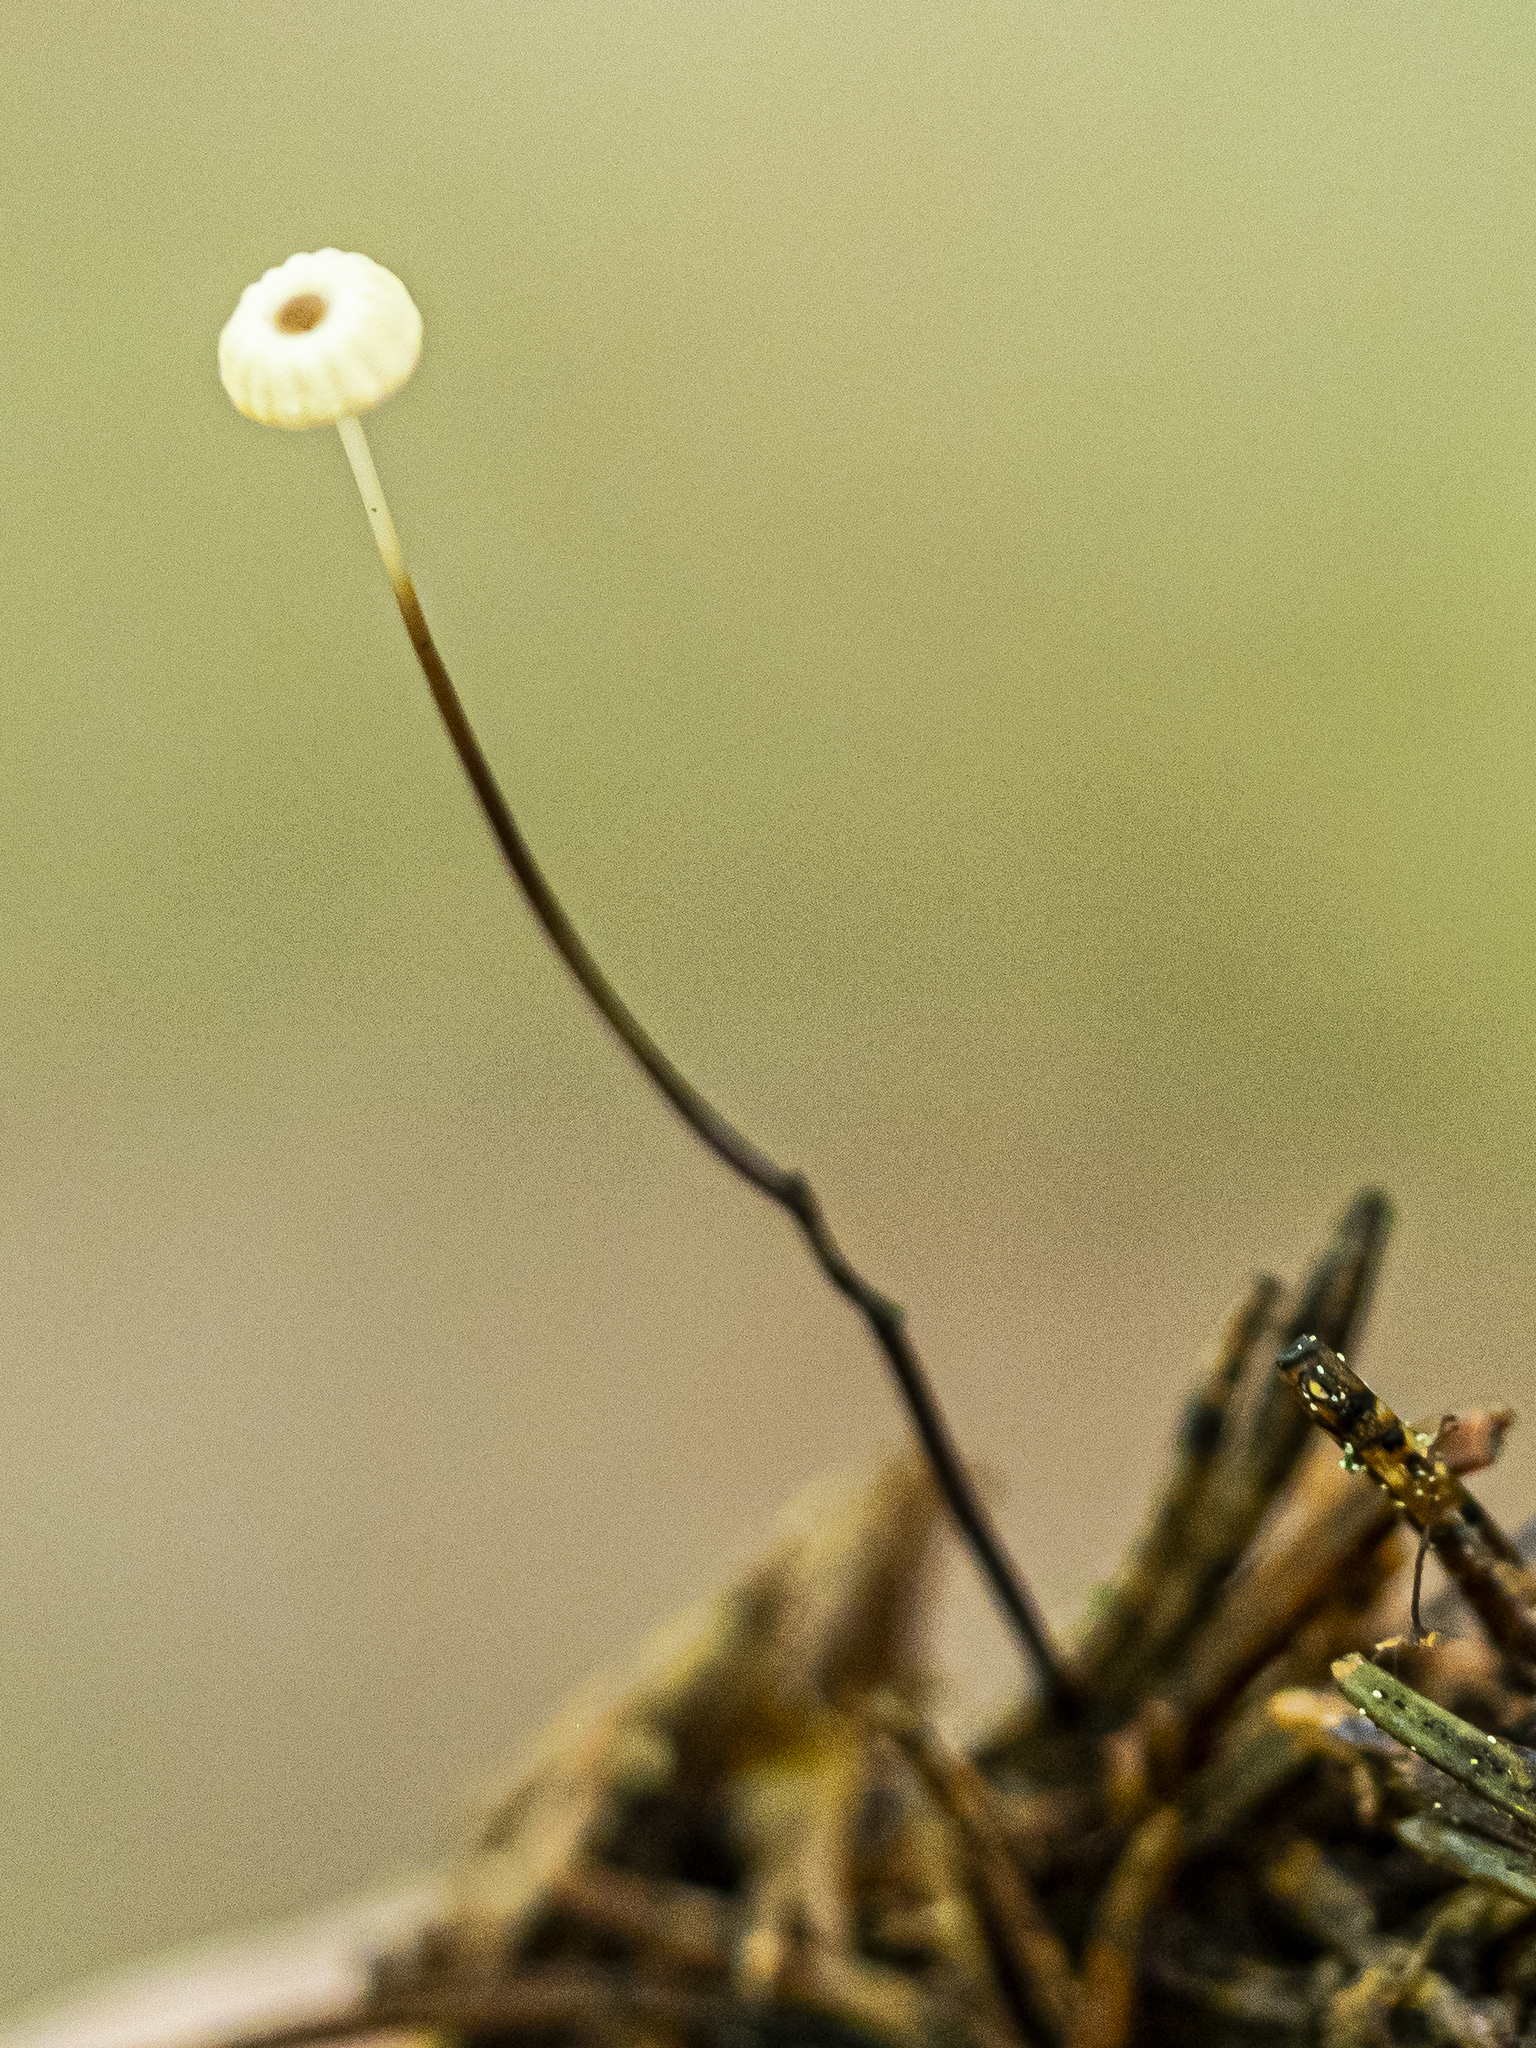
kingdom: Fungi
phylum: Basidiomycota
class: Agaricomycetes
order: Agaricales
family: Marasmiaceae
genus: Marasmius
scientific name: Marasmius wettsteinii
